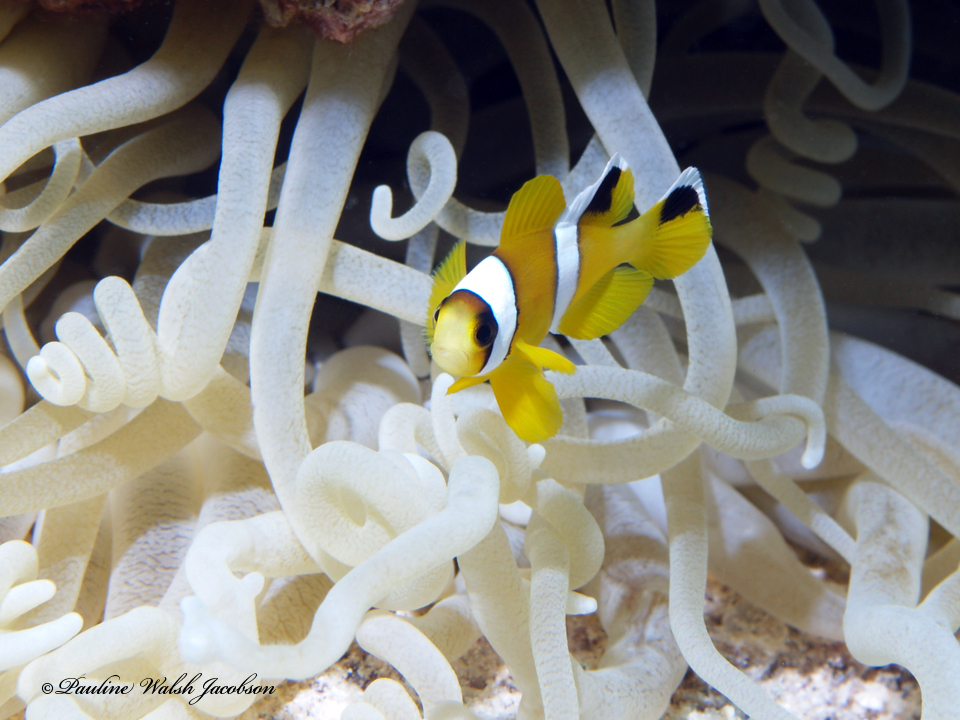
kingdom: Animalia
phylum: Chordata
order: Perciformes
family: Pomacentridae
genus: Amphiprion
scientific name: Amphiprion bicinctus
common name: Two-banded anemonefish
